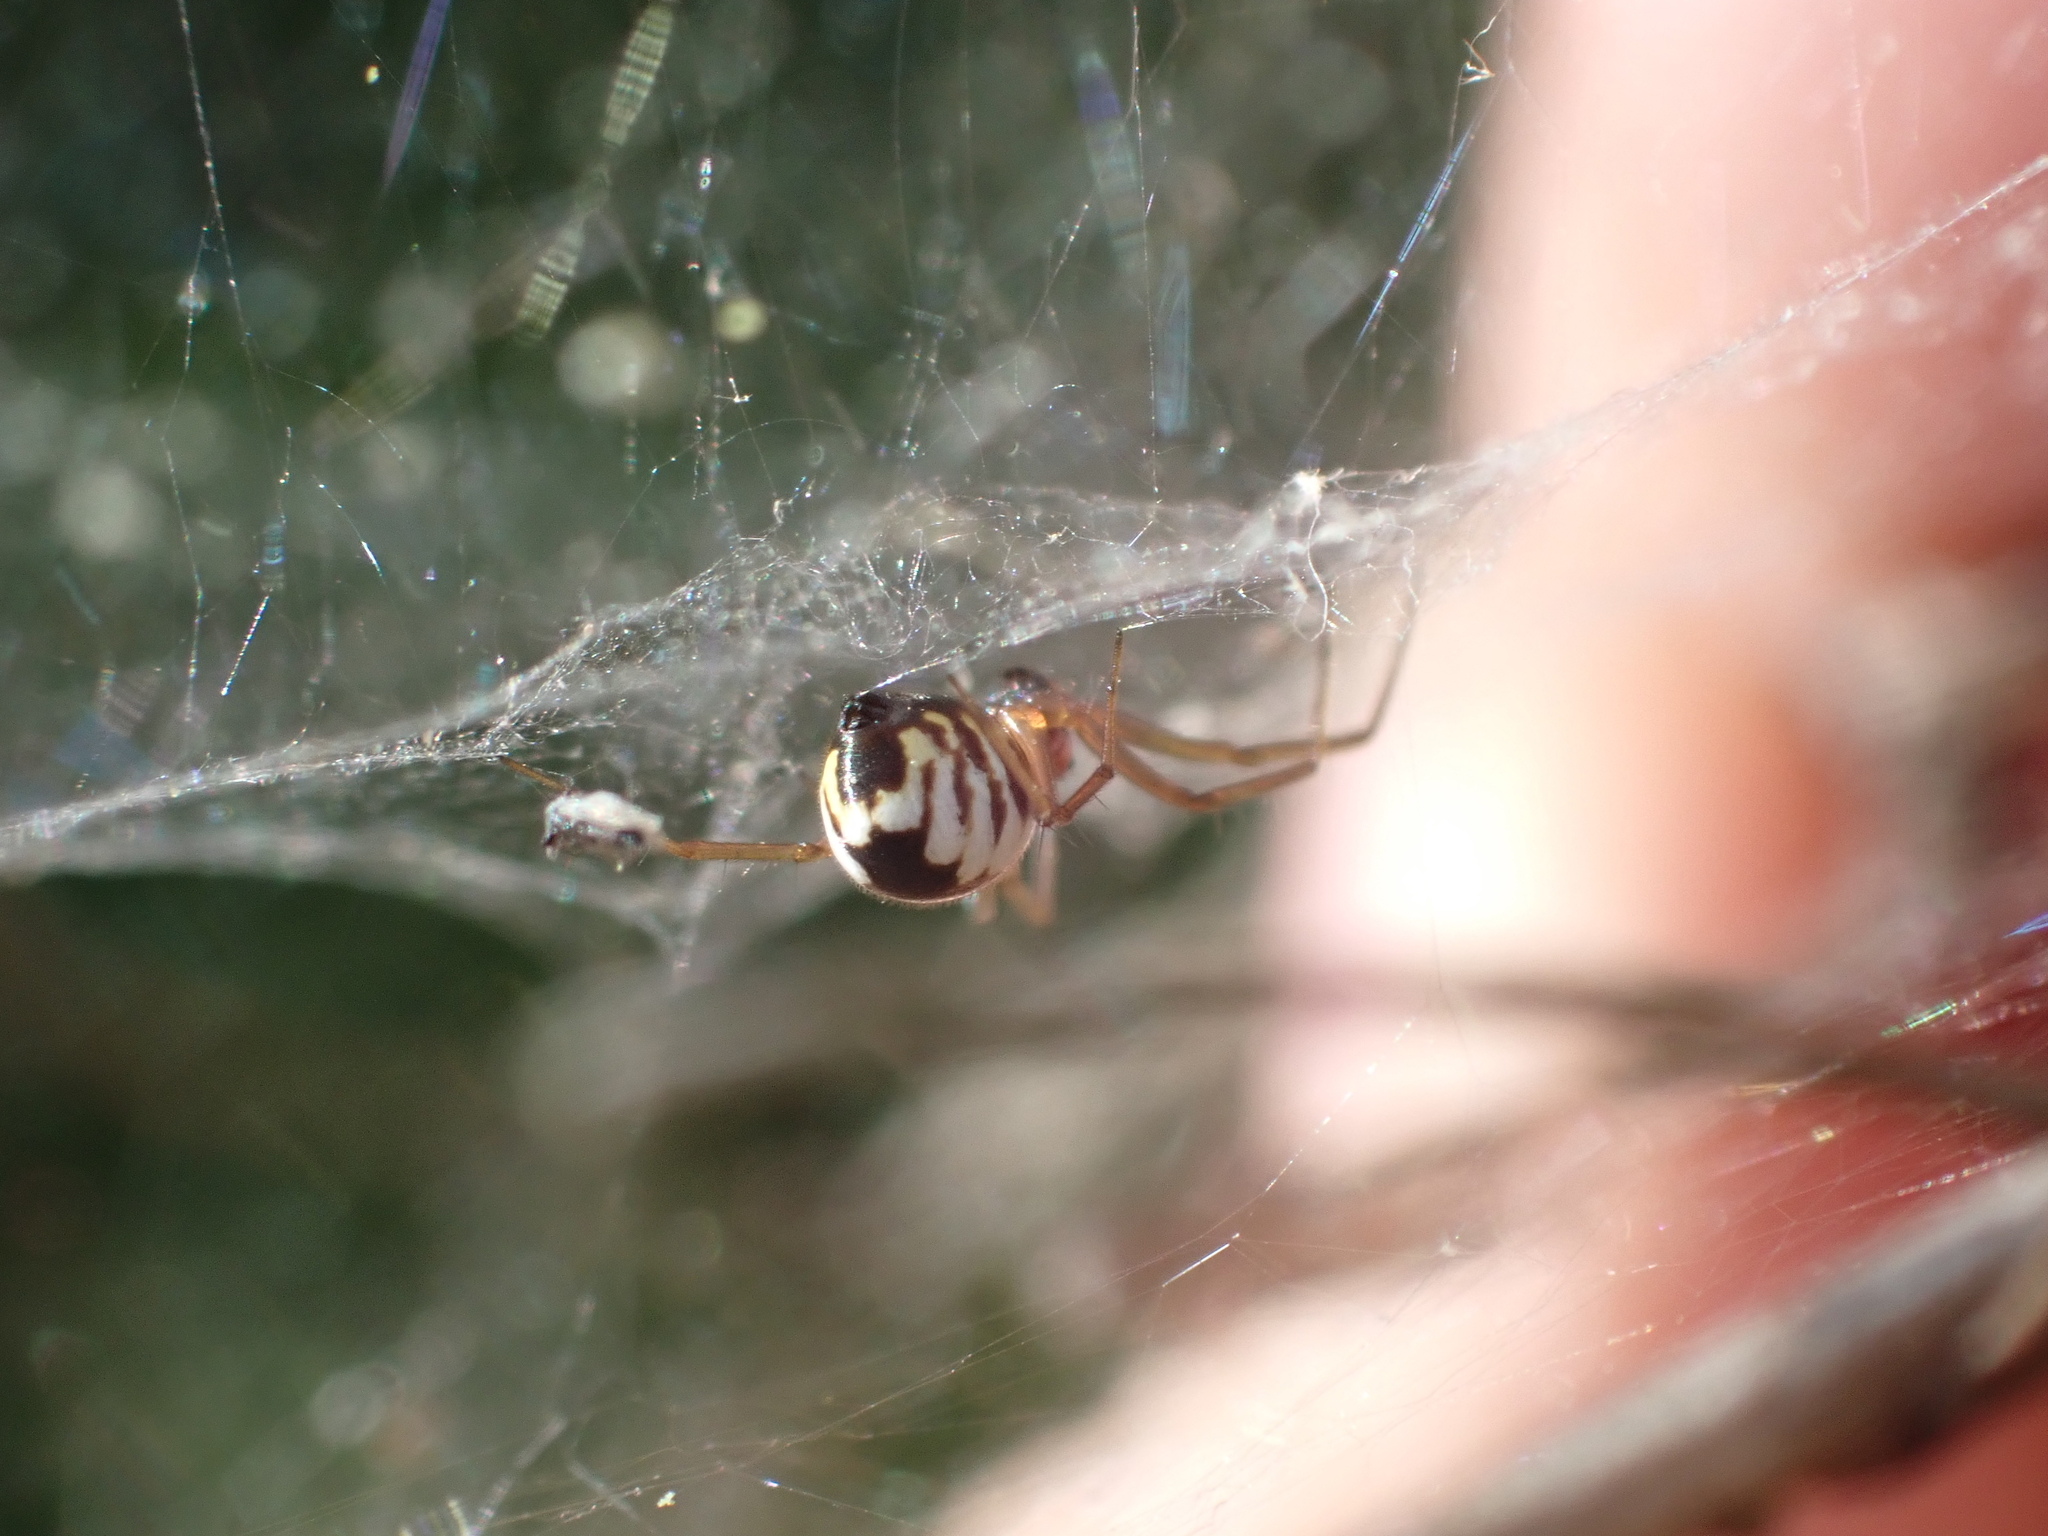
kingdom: Animalia
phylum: Arthropoda
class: Arachnida
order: Araneae
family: Linyphiidae
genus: Frontinella
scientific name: Frontinella pyramitela
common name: Bowl-and-doily spider
